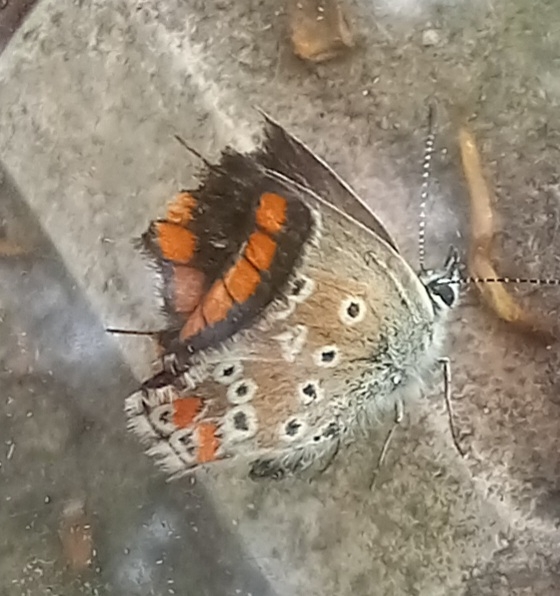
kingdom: Animalia
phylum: Arthropoda
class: Insecta
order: Lepidoptera
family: Lycaenidae
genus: Aricia
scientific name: Aricia cramera
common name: Eschscholtz´s brown  argus
